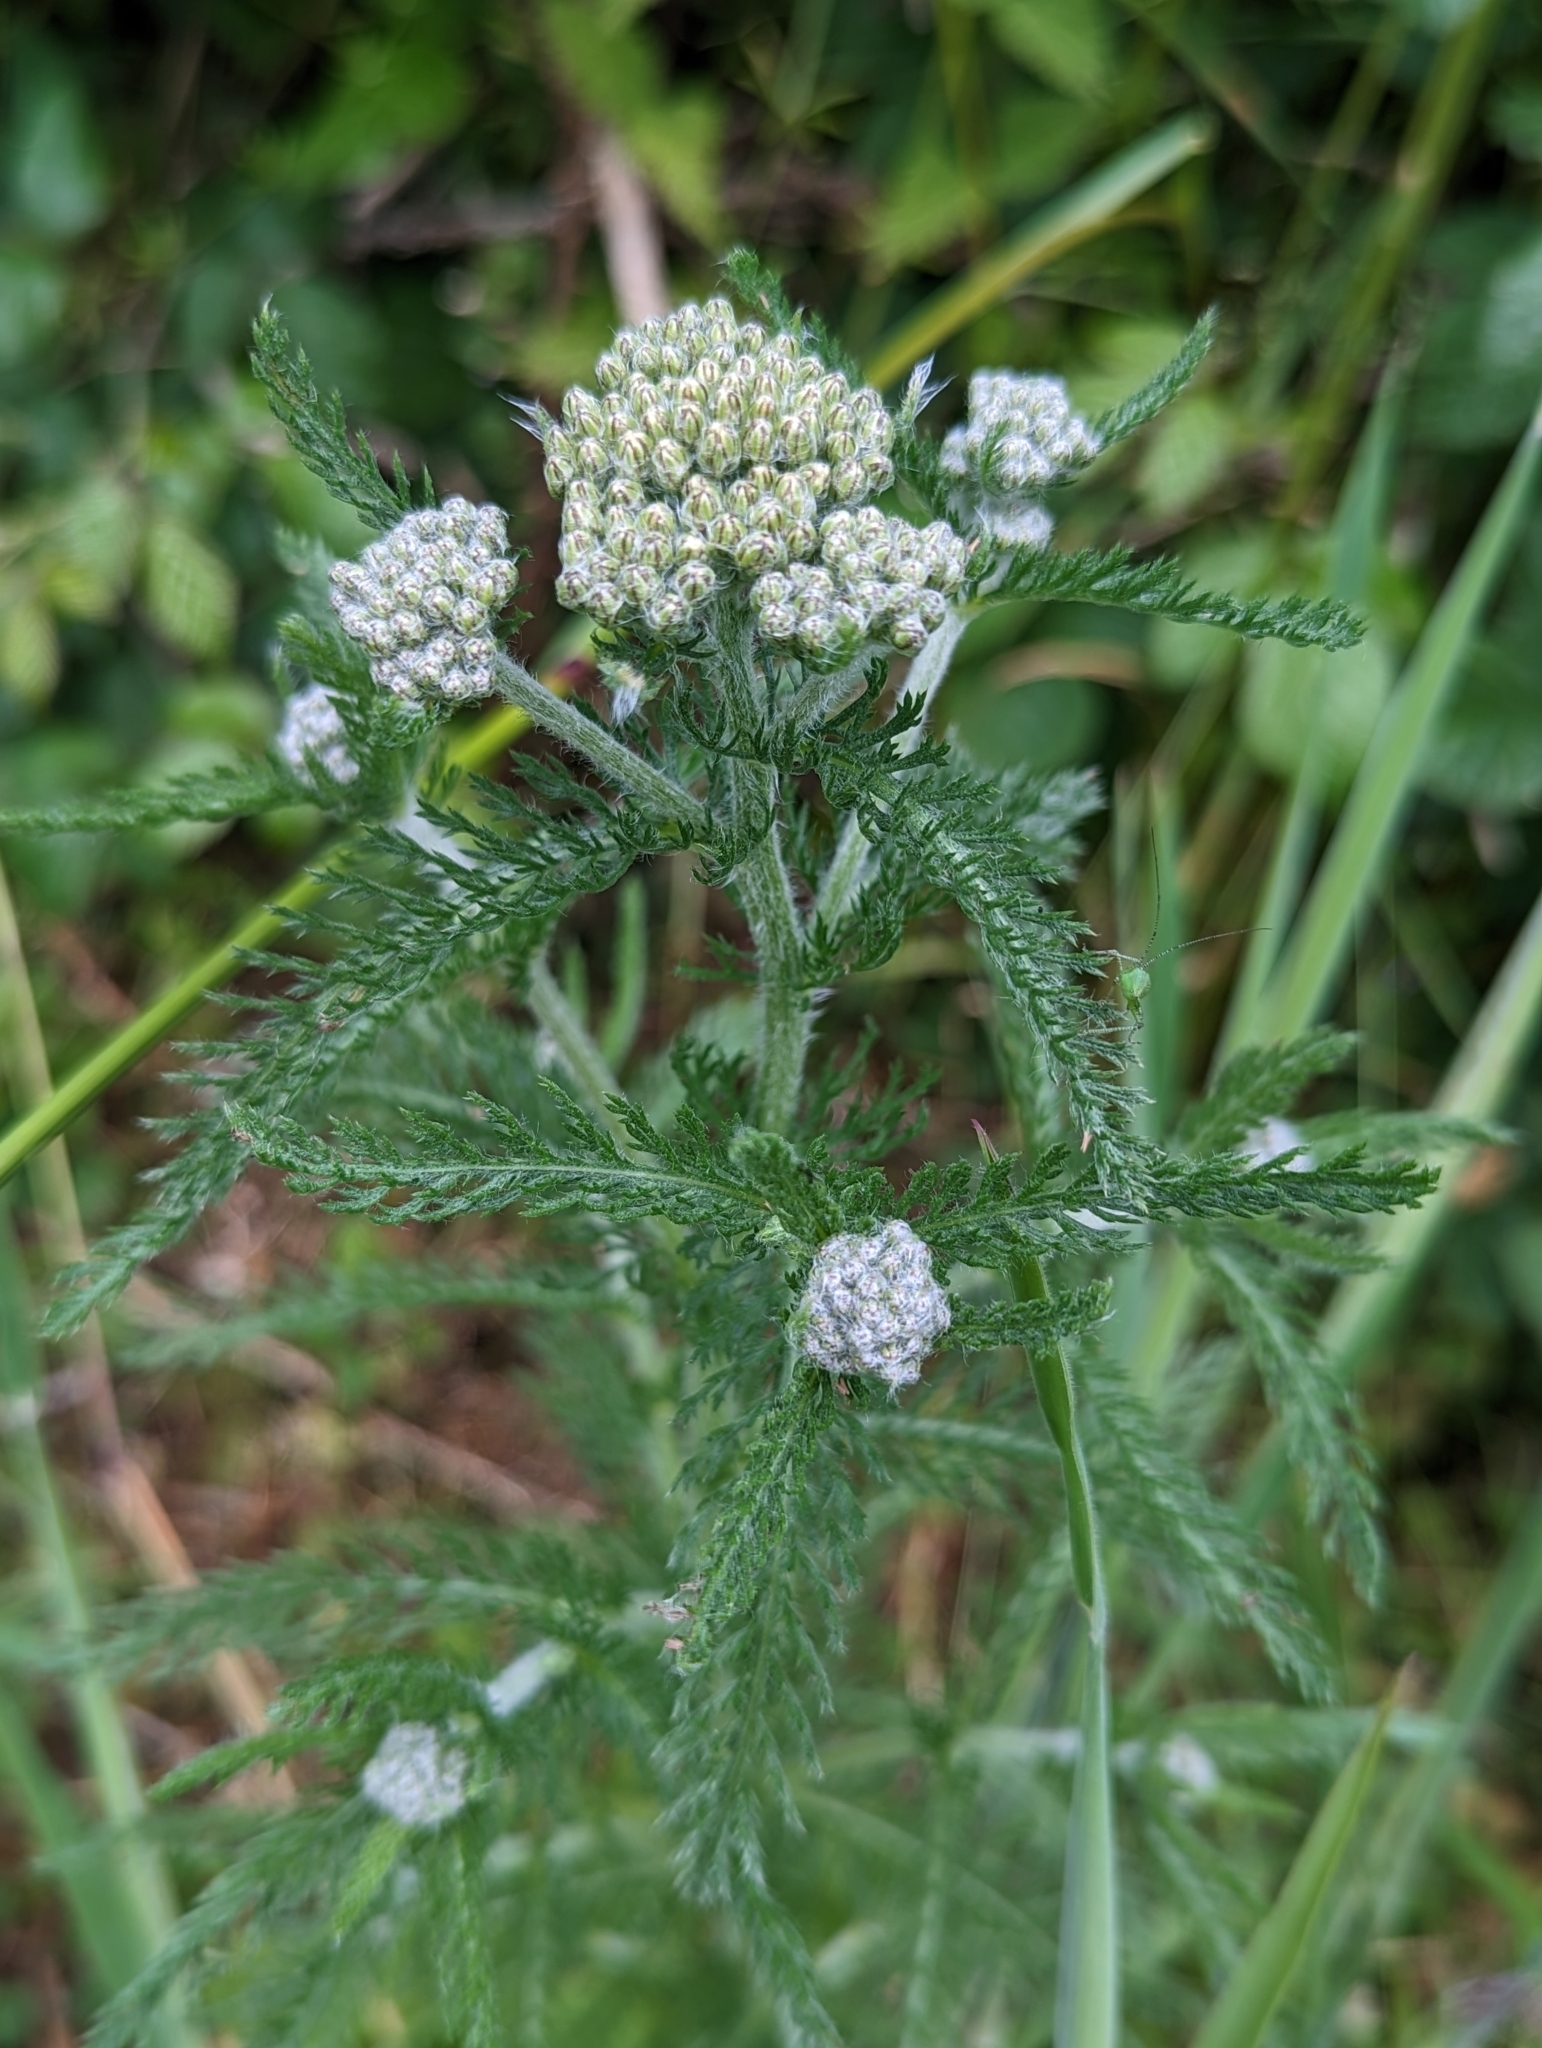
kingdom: Plantae
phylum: Tracheophyta
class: Magnoliopsida
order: Asterales
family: Asteraceae
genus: Achillea
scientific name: Achillea millefolium
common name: Yarrow
